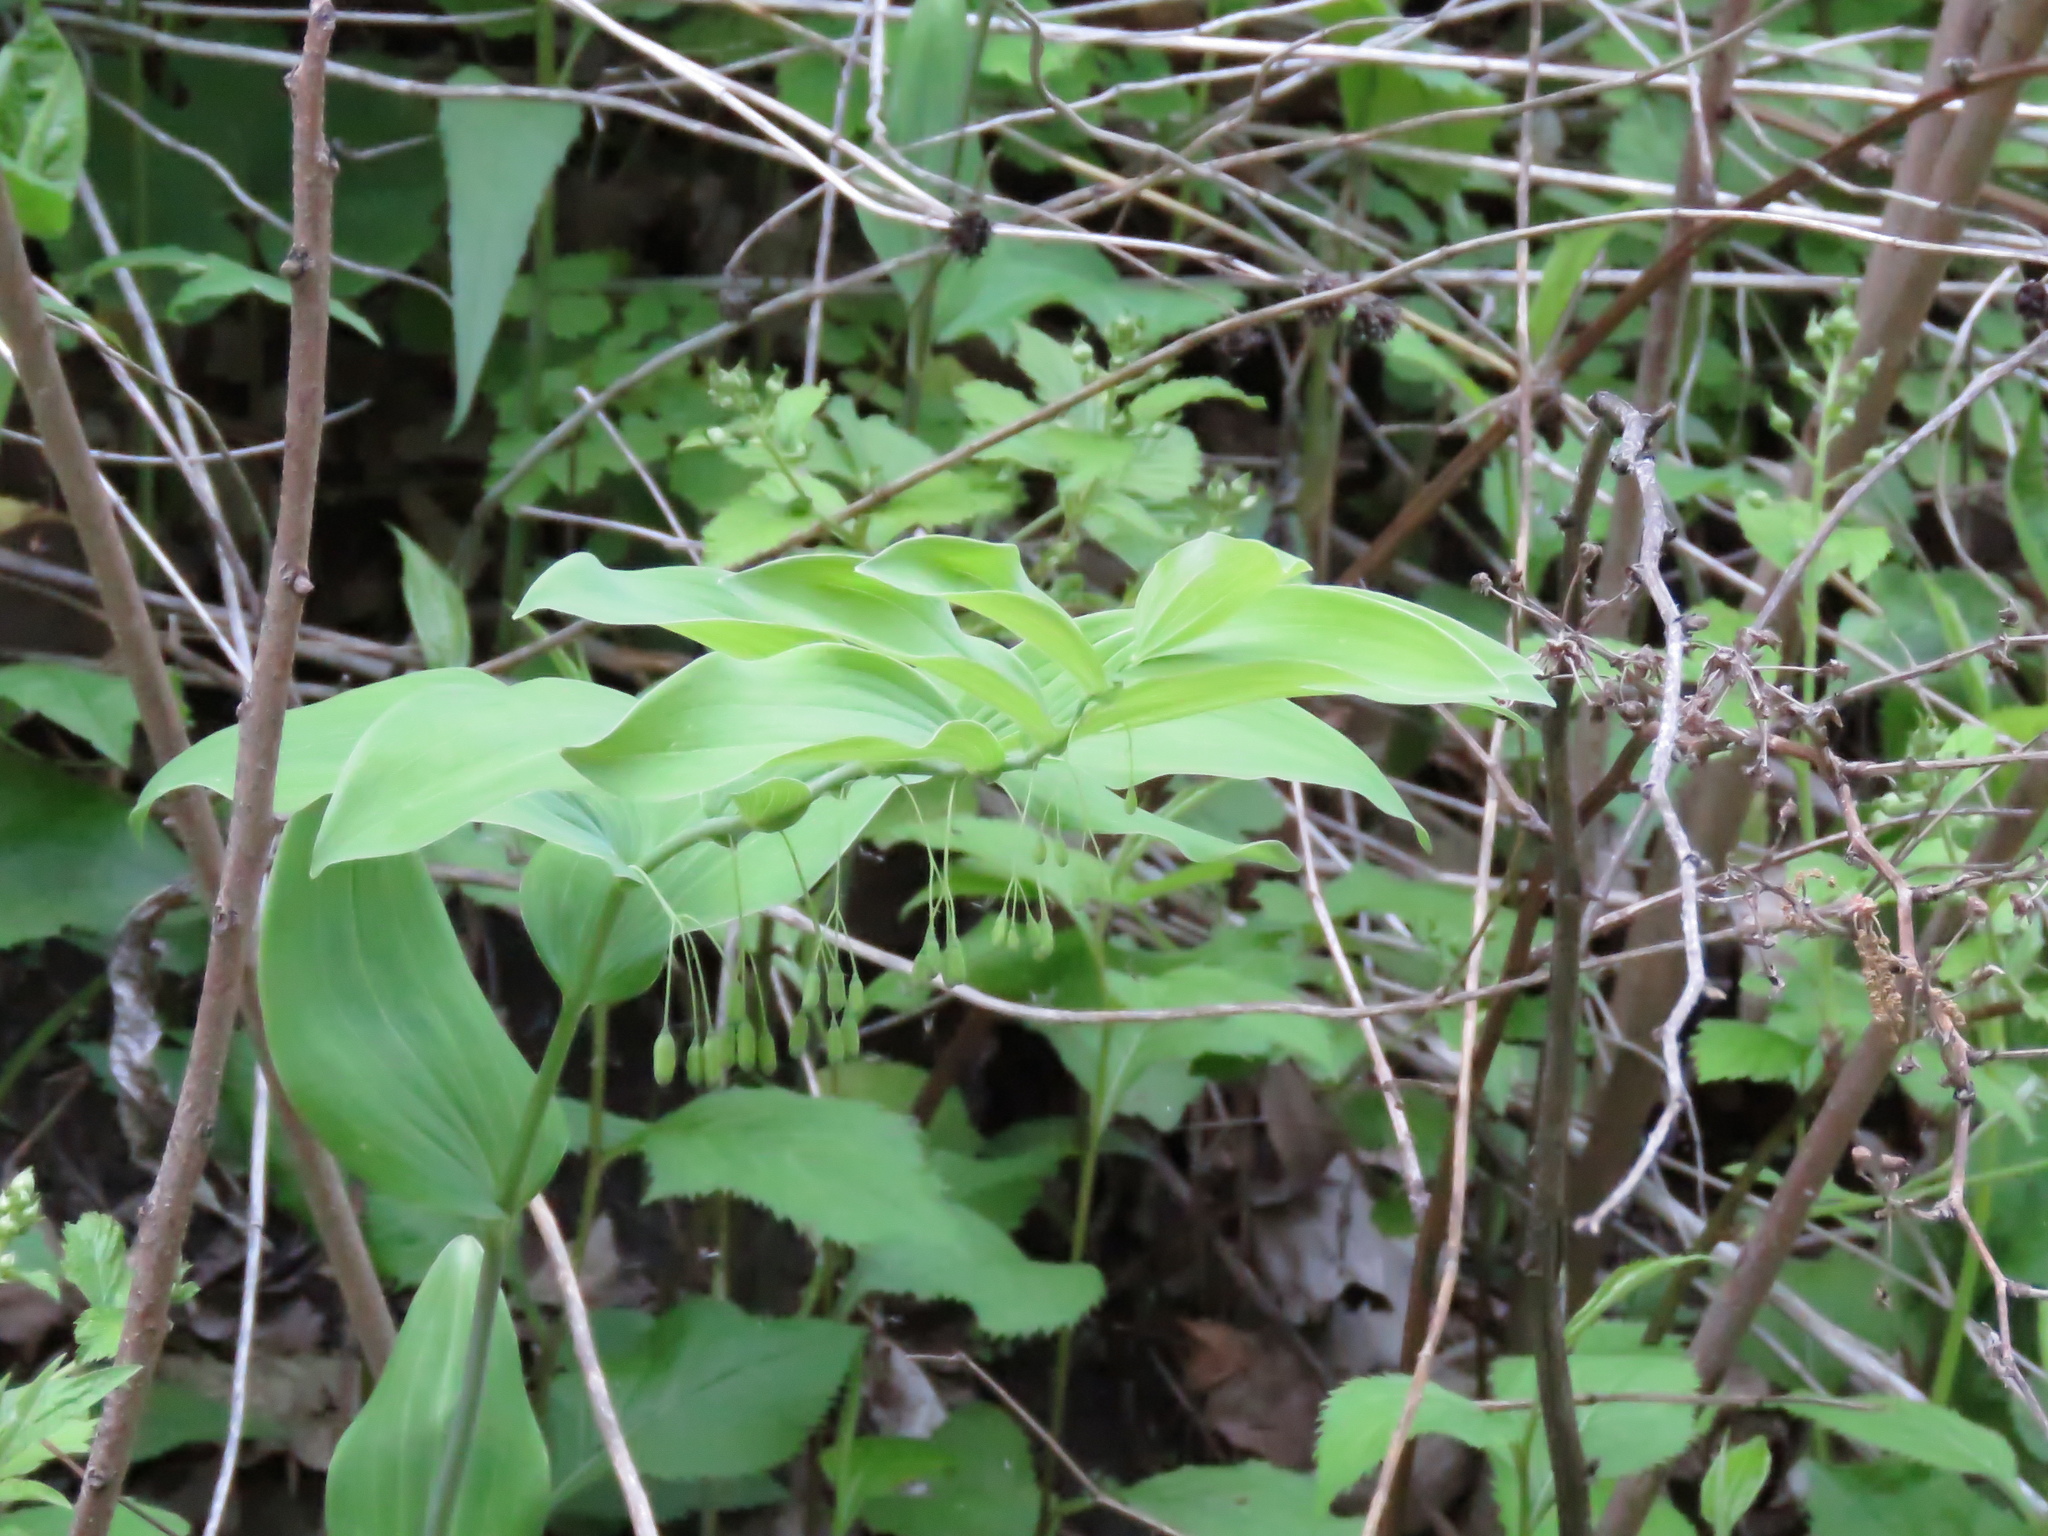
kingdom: Plantae
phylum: Tracheophyta
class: Liliopsida
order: Asparagales
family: Asparagaceae
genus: Polygonatum
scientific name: Polygonatum biflorum
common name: American solomon's-seal
